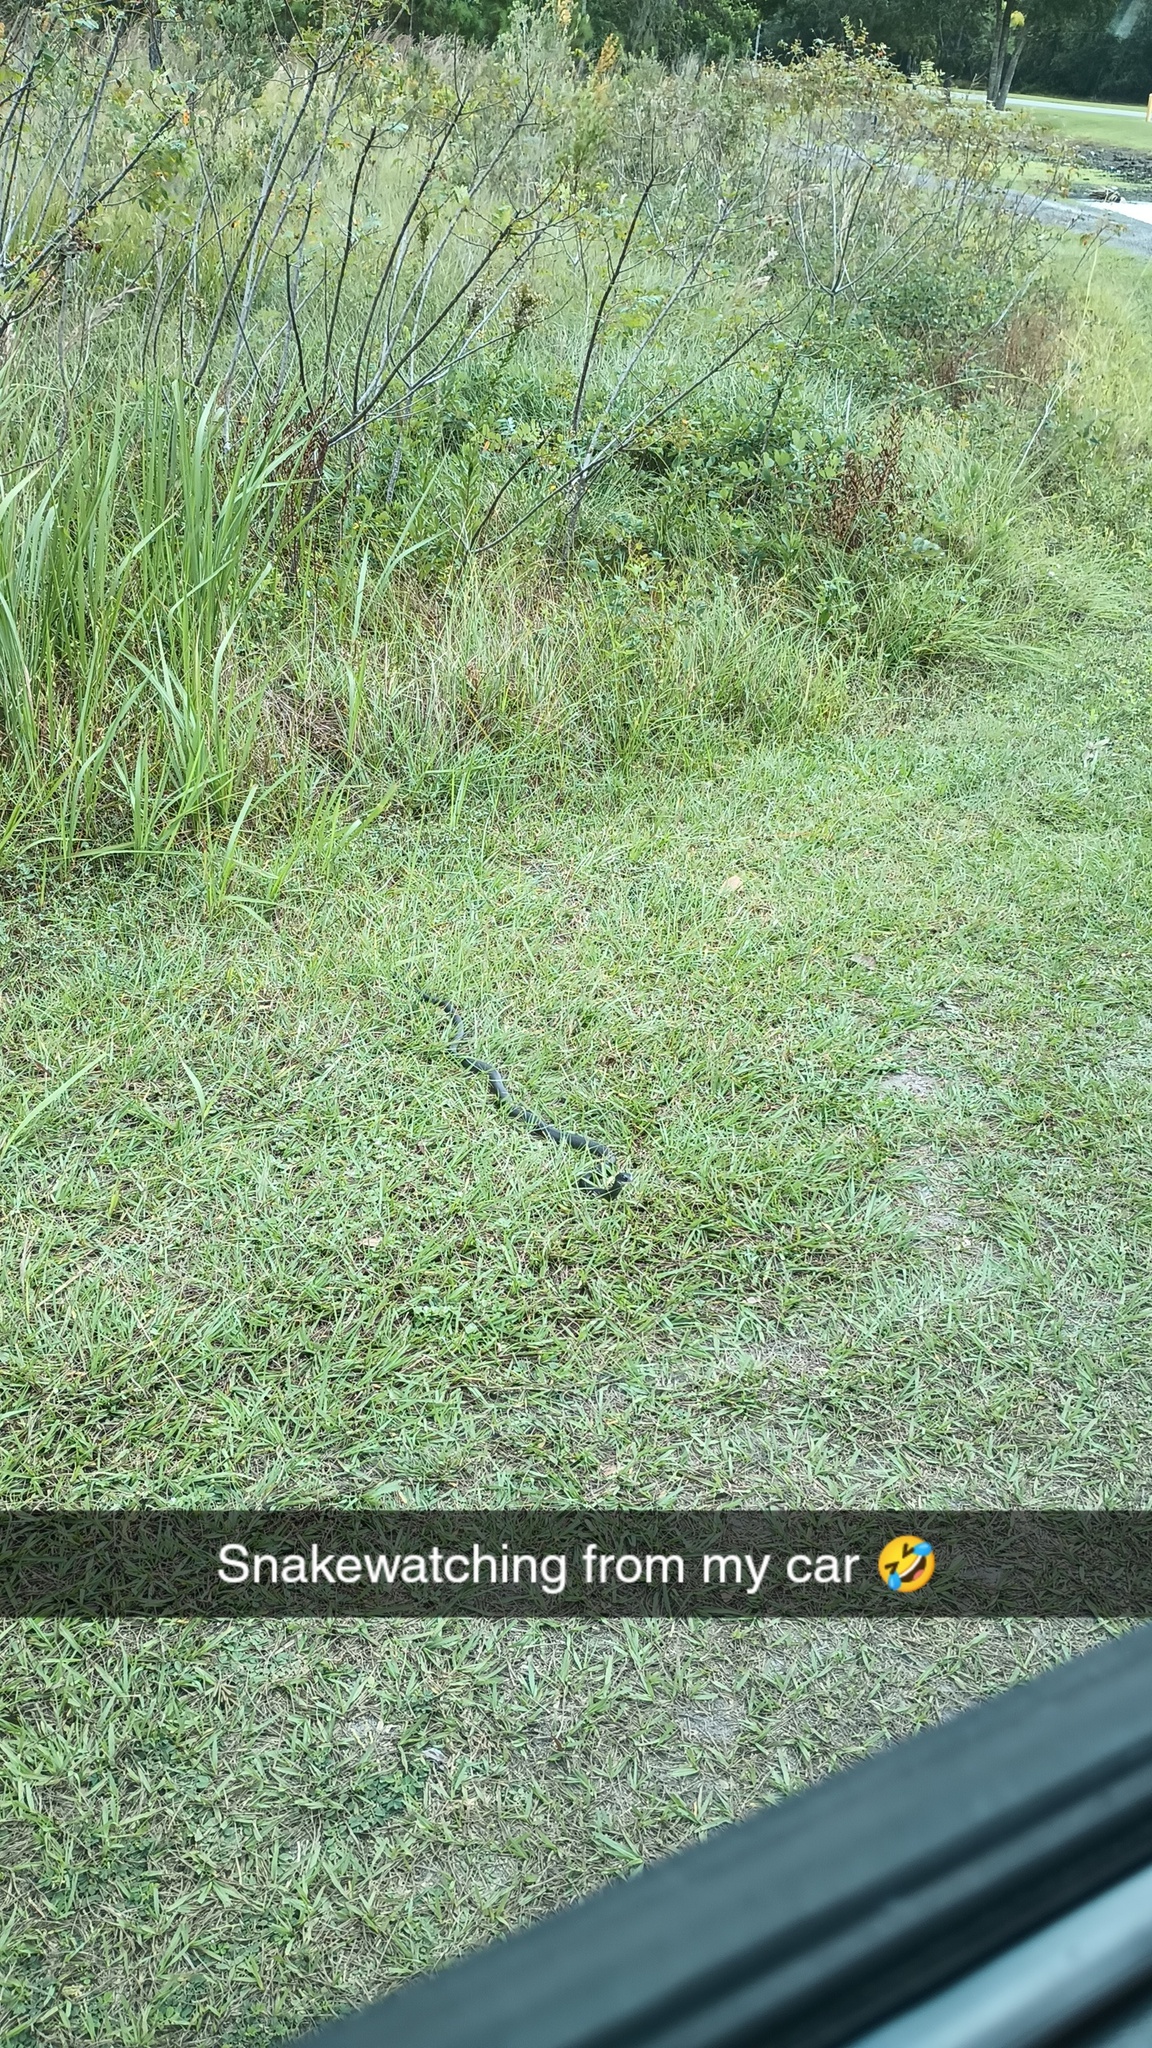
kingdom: Animalia
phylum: Chordata
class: Squamata
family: Colubridae
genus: Coluber
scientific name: Coluber constrictor
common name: Eastern racer
